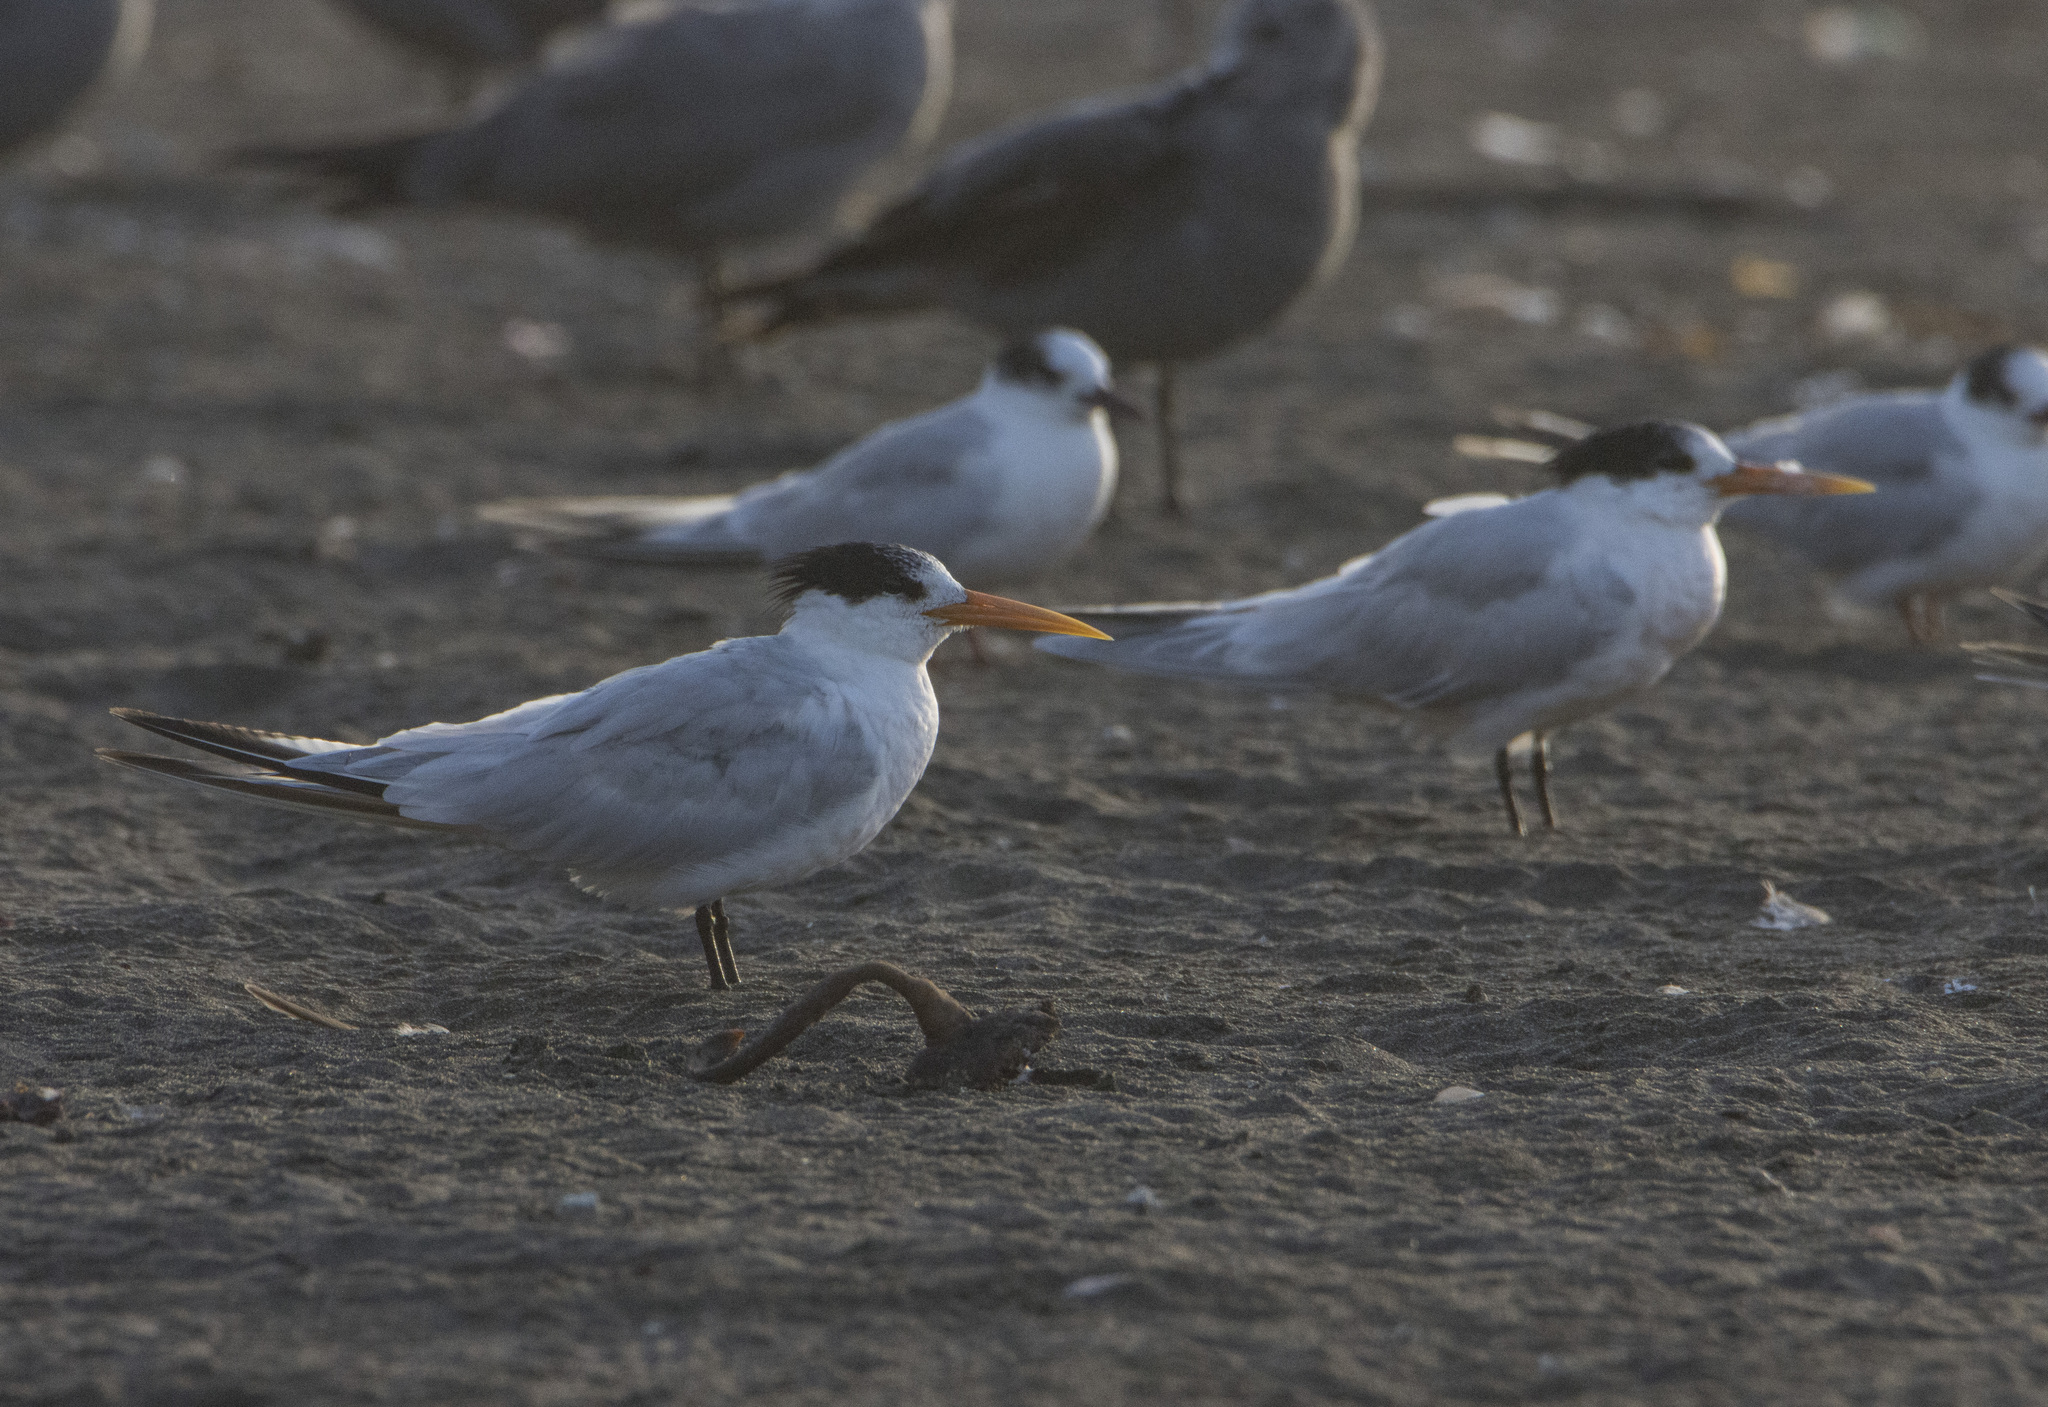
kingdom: Animalia
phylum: Chordata
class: Aves
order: Charadriiformes
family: Laridae
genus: Thalasseus
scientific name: Thalasseus elegans
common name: Elegant tern
